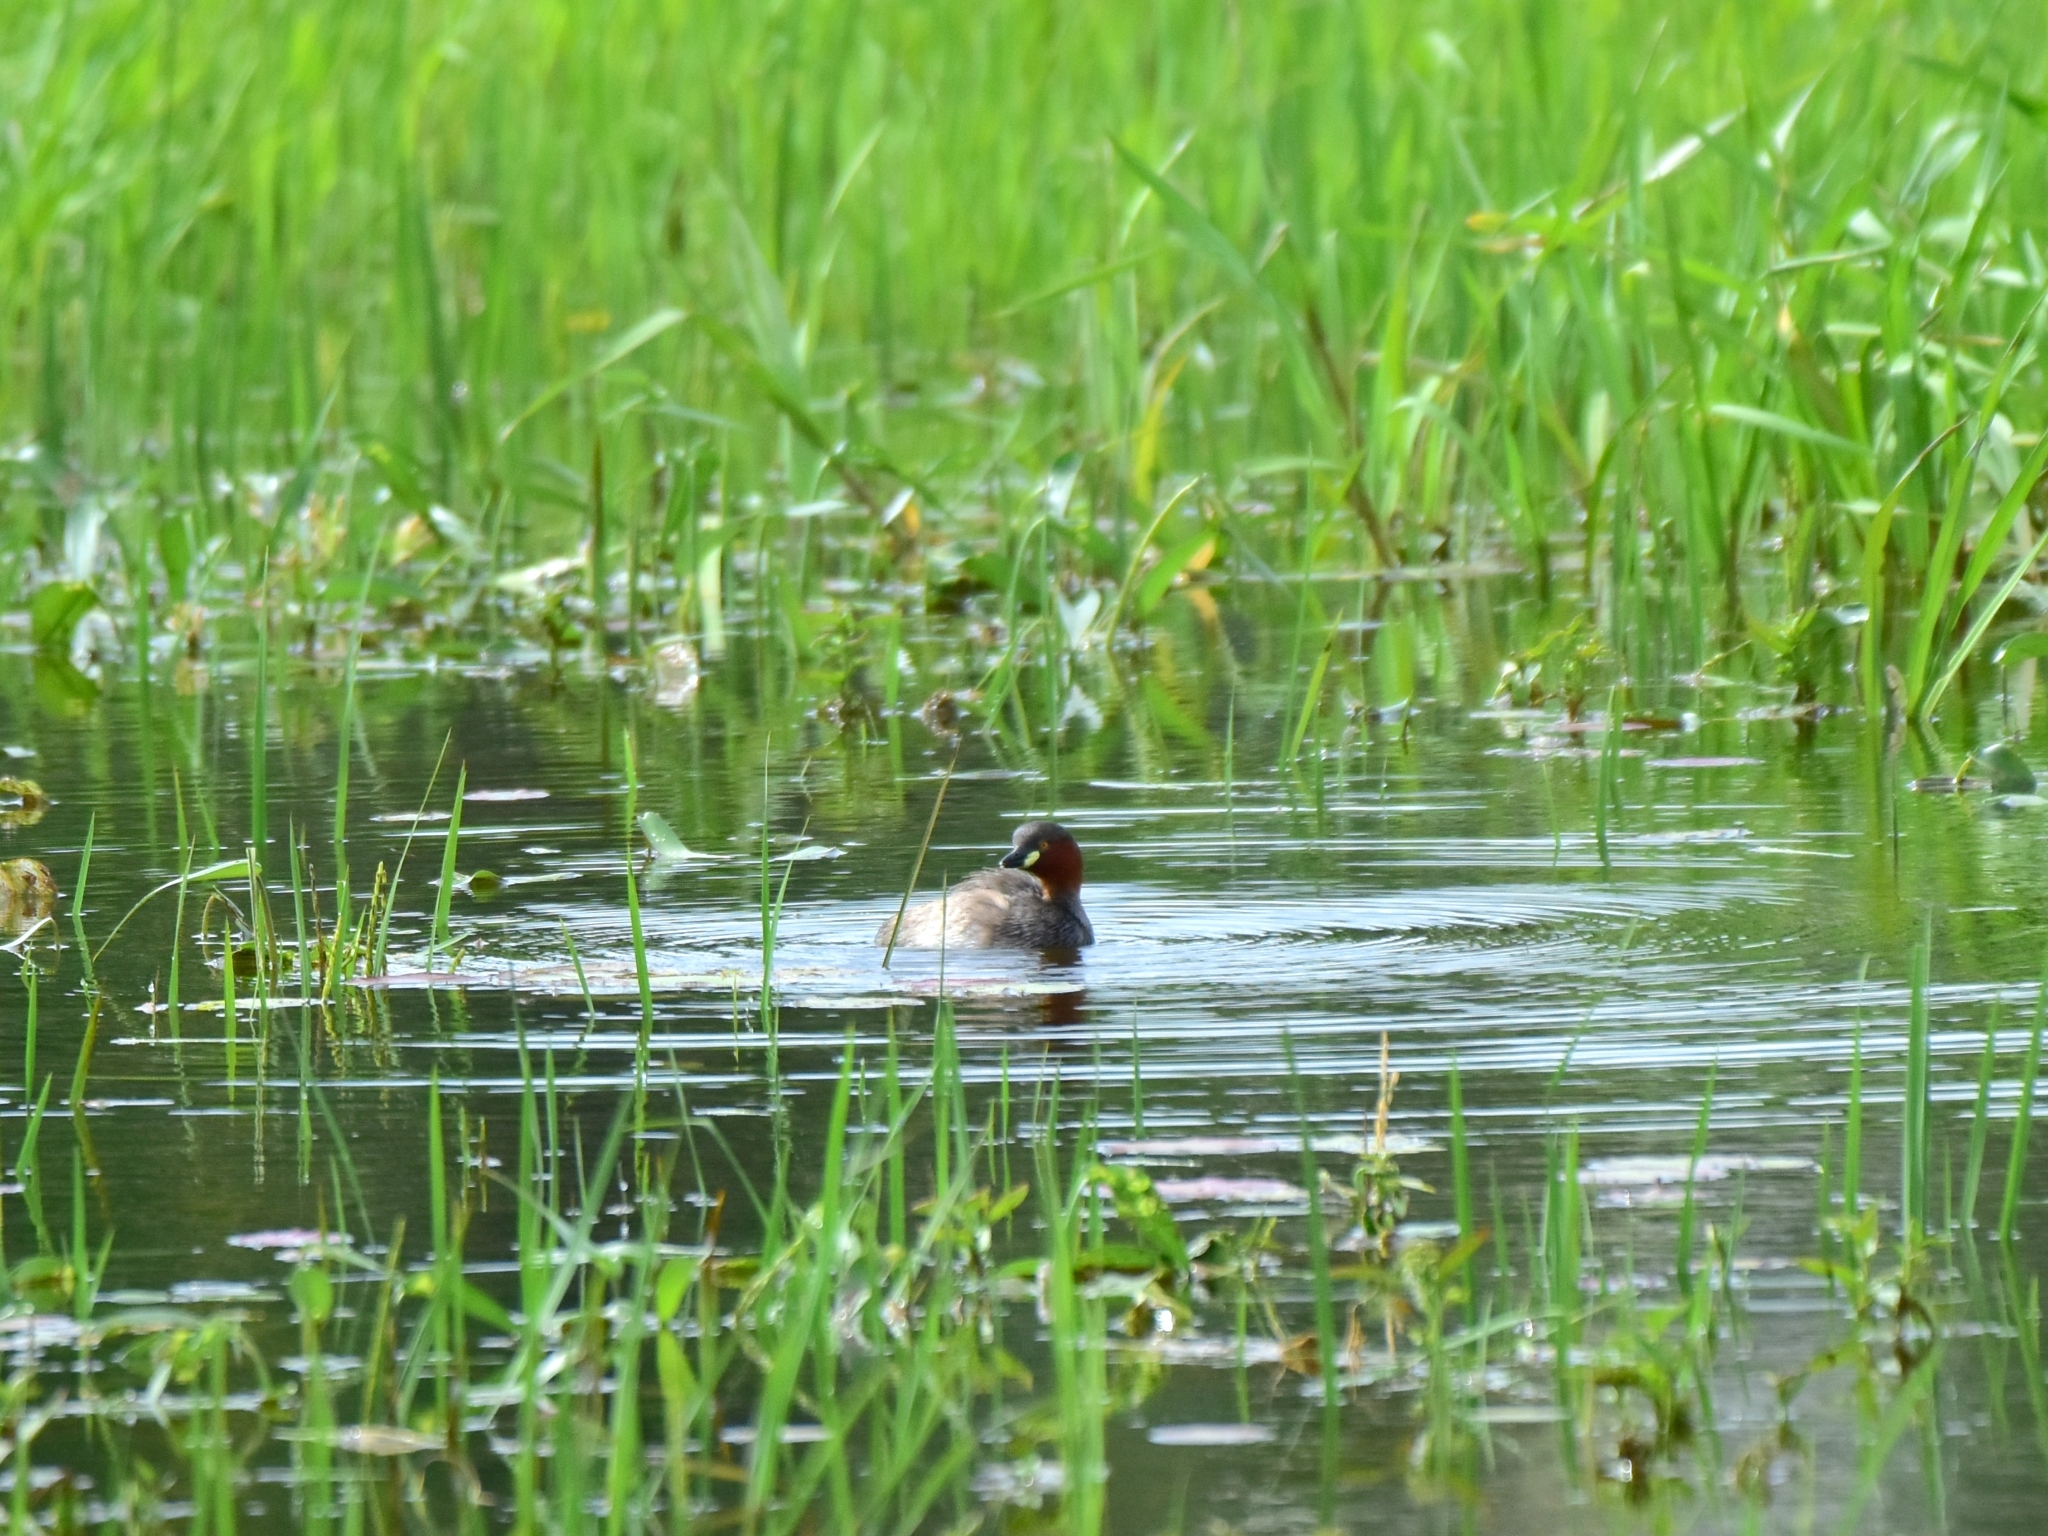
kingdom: Animalia
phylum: Chordata
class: Aves
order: Podicipediformes
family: Podicipedidae
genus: Tachybaptus
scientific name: Tachybaptus ruficollis
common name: Little grebe
